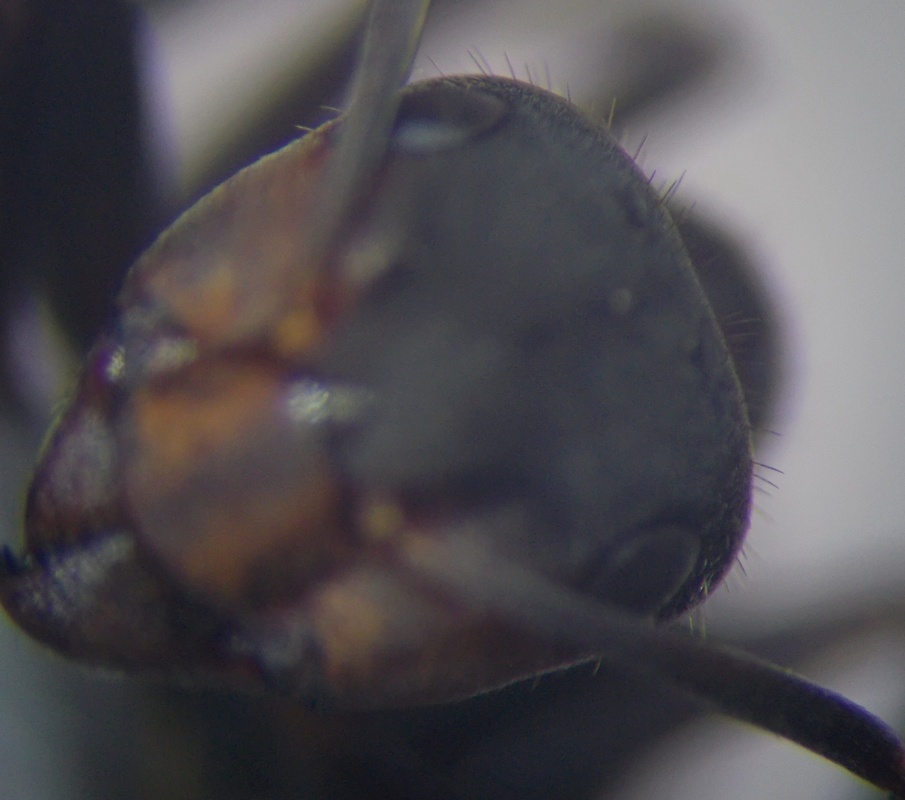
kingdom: Animalia
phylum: Arthropoda
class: Insecta
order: Hymenoptera
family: Formicidae
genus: Formica
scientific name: Formica pratensis
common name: European red wood ant
